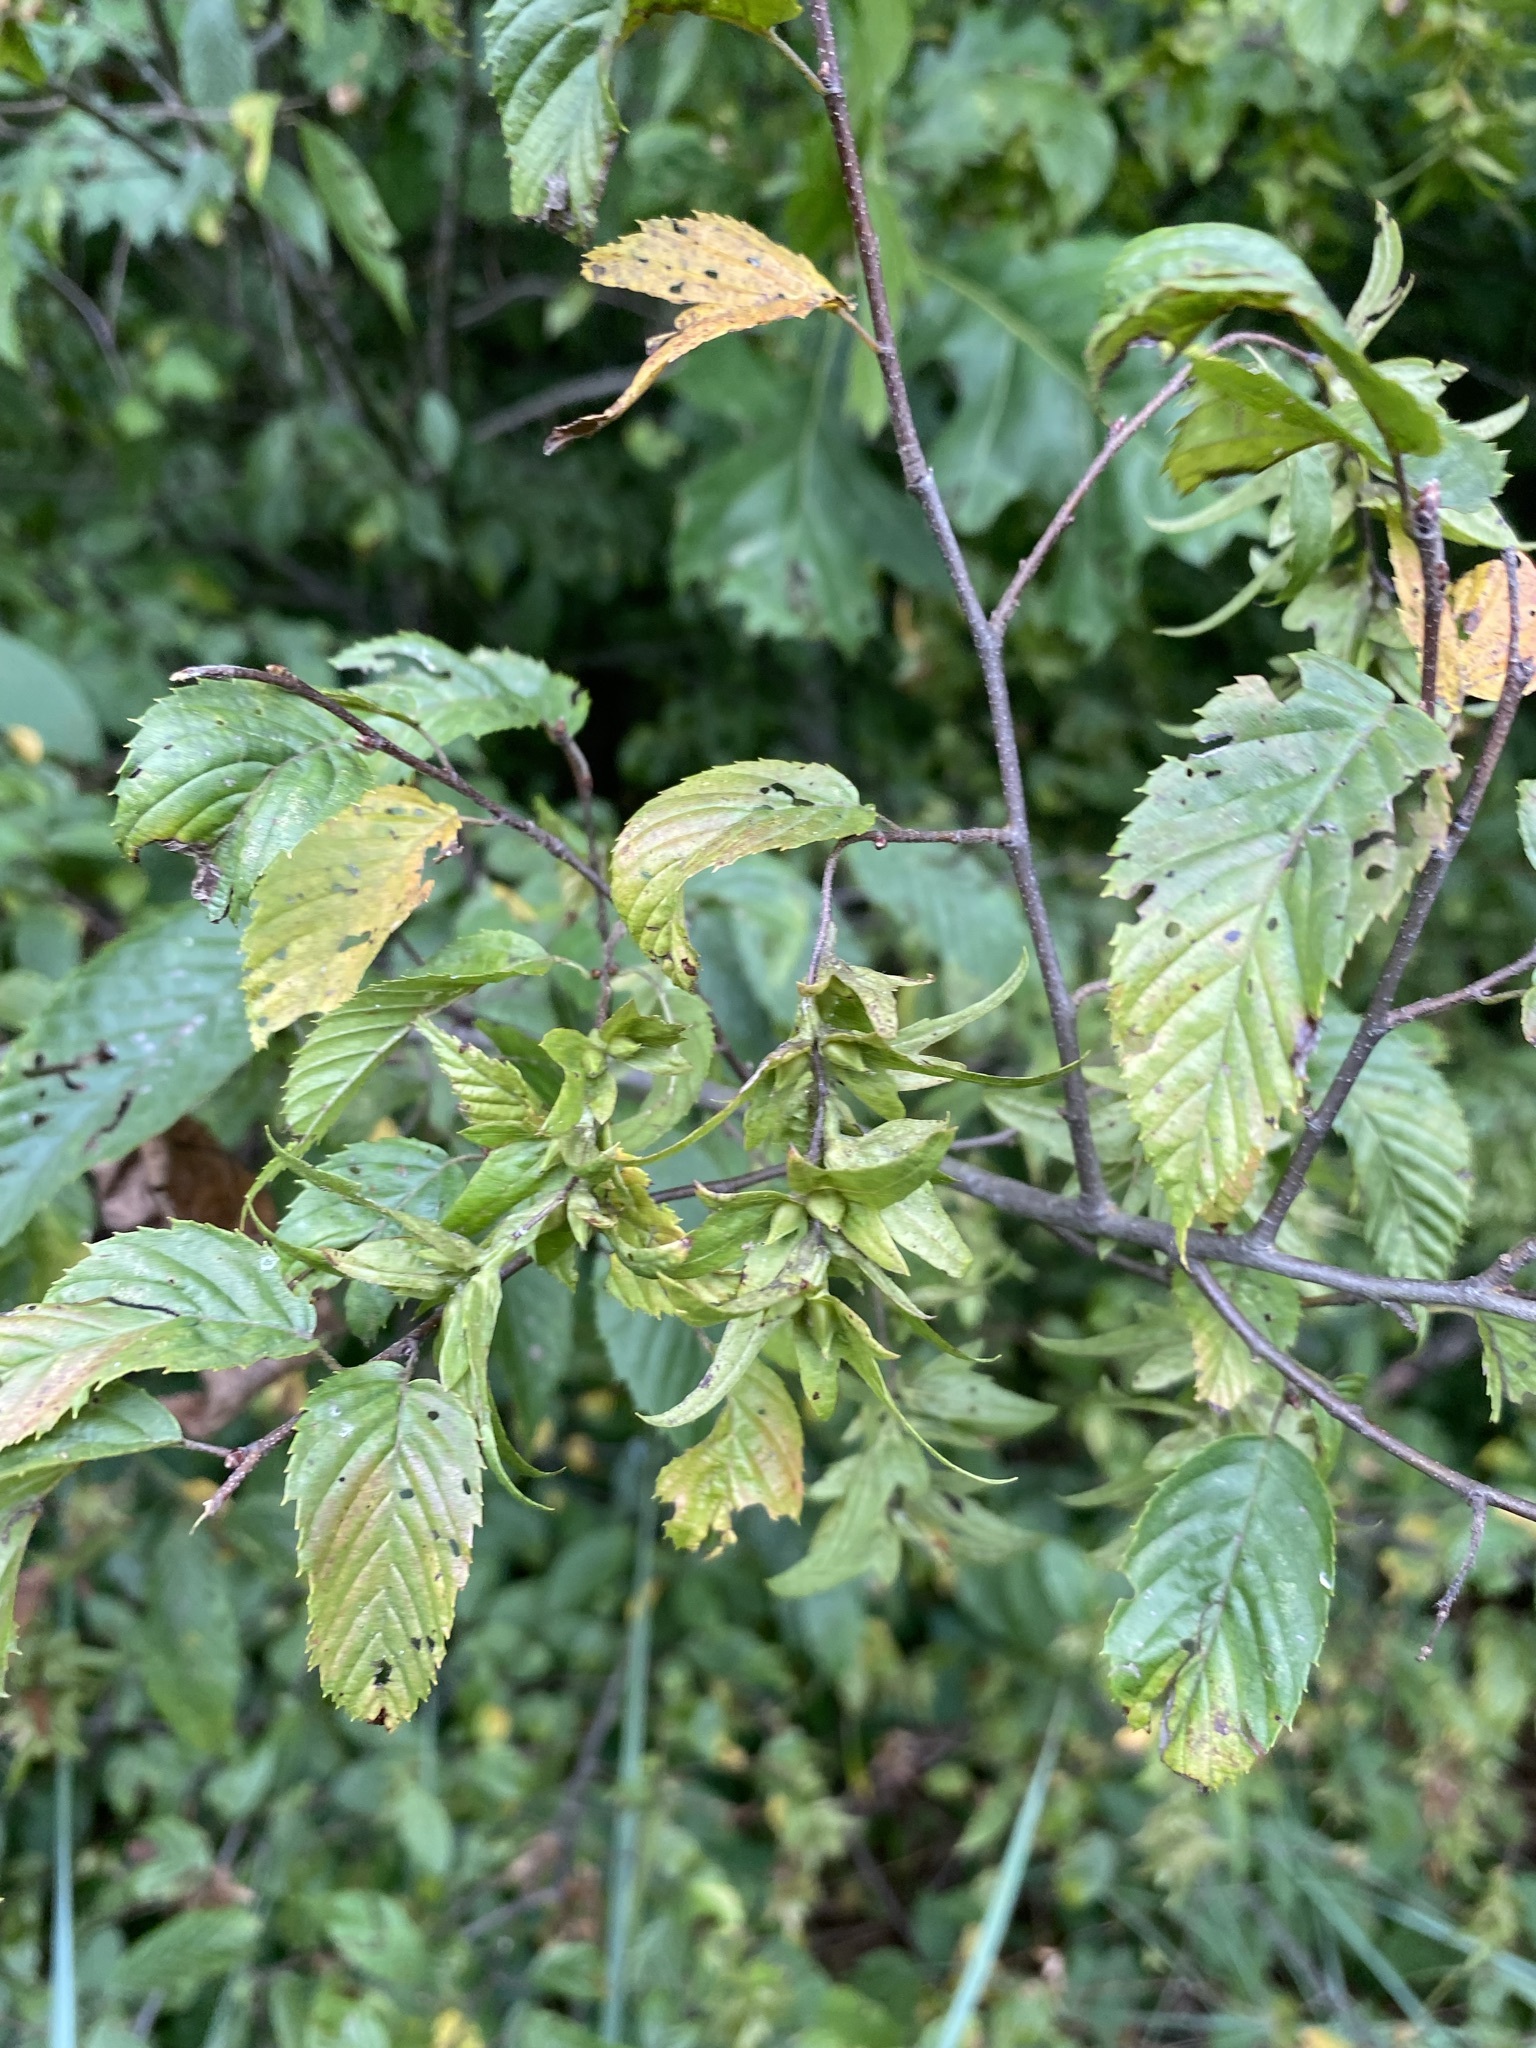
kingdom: Plantae
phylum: Tracheophyta
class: Magnoliopsida
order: Fagales
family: Betulaceae
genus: Carpinus
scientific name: Carpinus caroliniana
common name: American hornbeam
